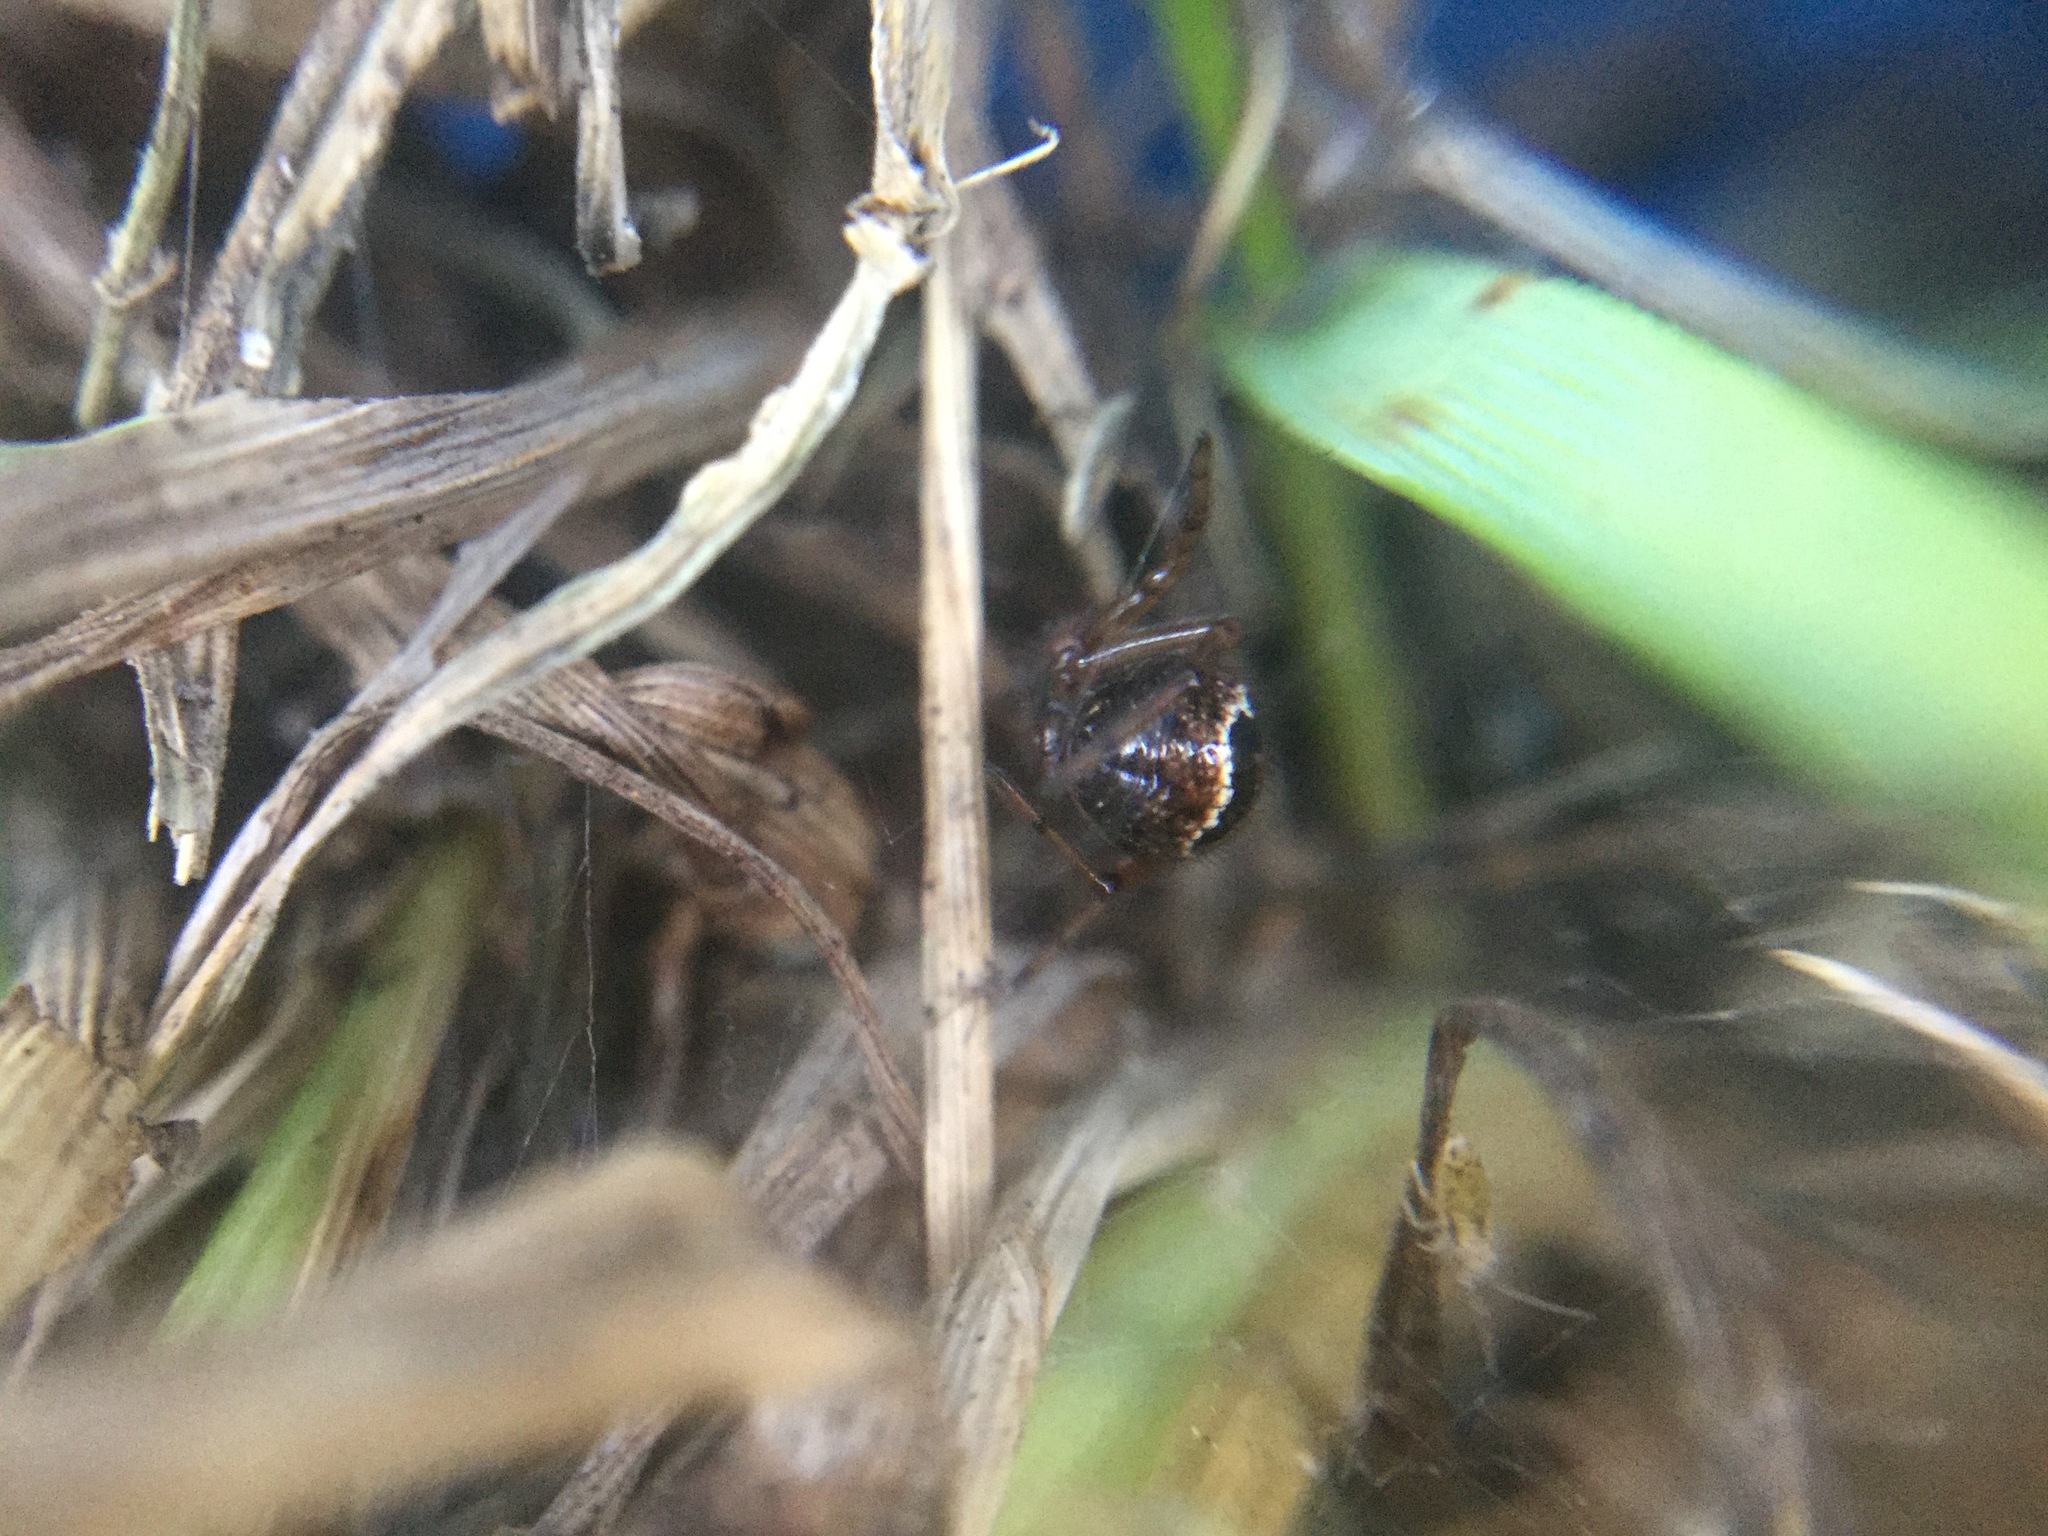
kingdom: Animalia
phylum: Arthropoda
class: Arachnida
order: Araneae
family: Theridiidae
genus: Enoplognatha
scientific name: Enoplognatha marmorata
